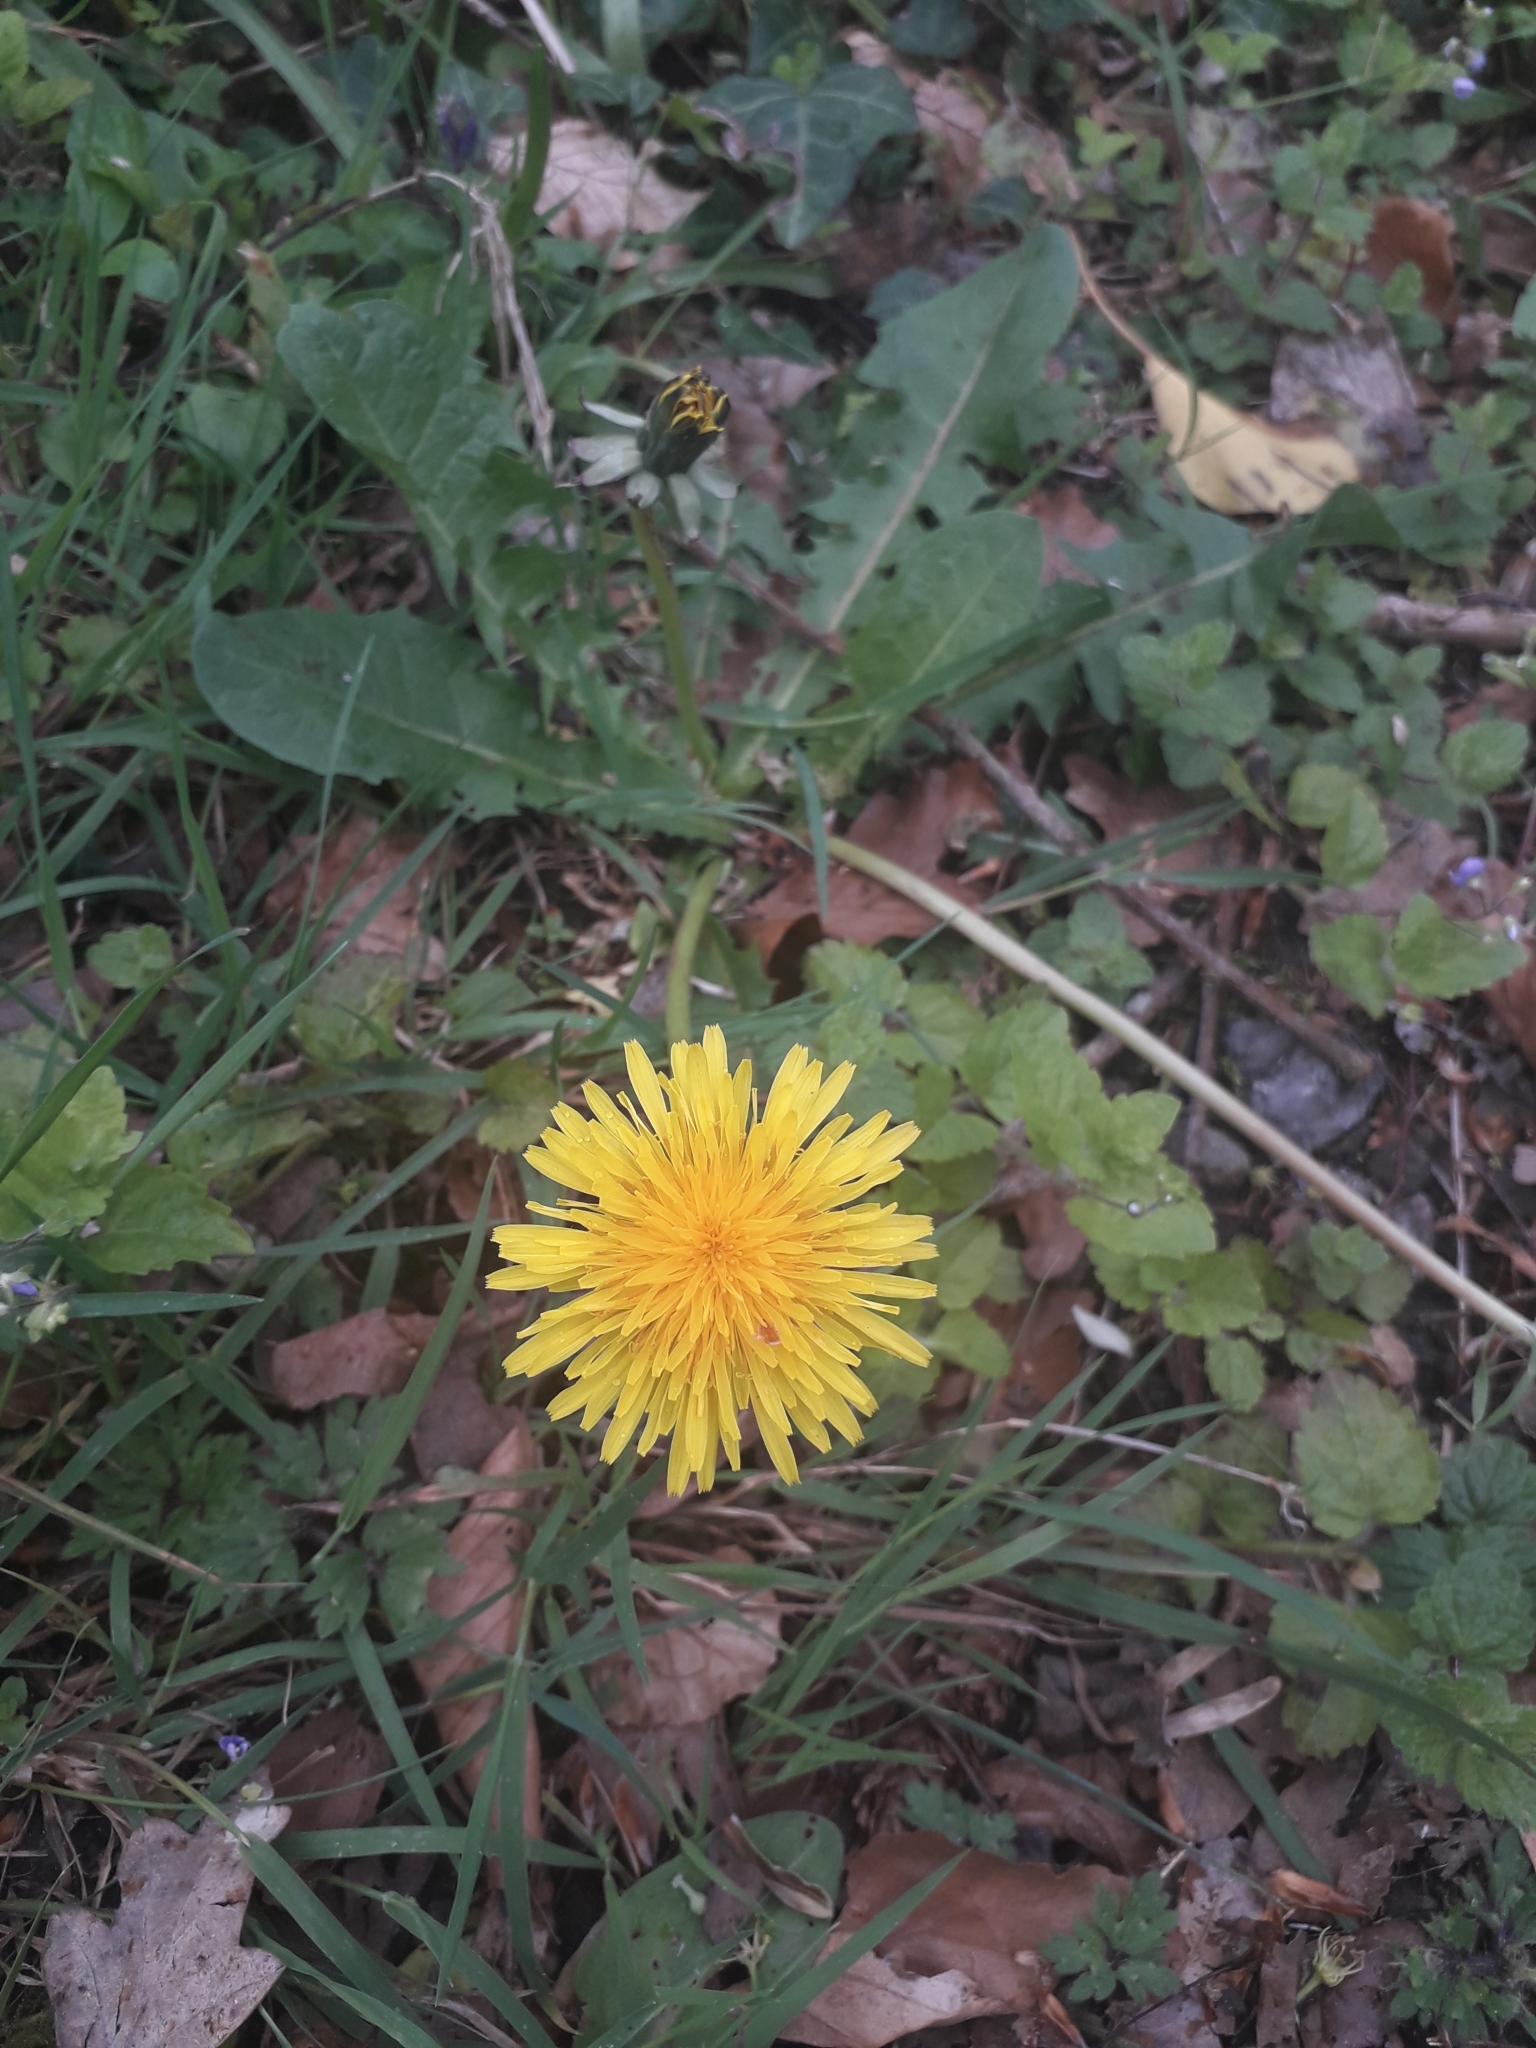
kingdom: Plantae
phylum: Tracheophyta
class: Magnoliopsida
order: Asterales
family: Asteraceae
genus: Taraxacum
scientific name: Taraxacum officinale
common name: Common dandelion
